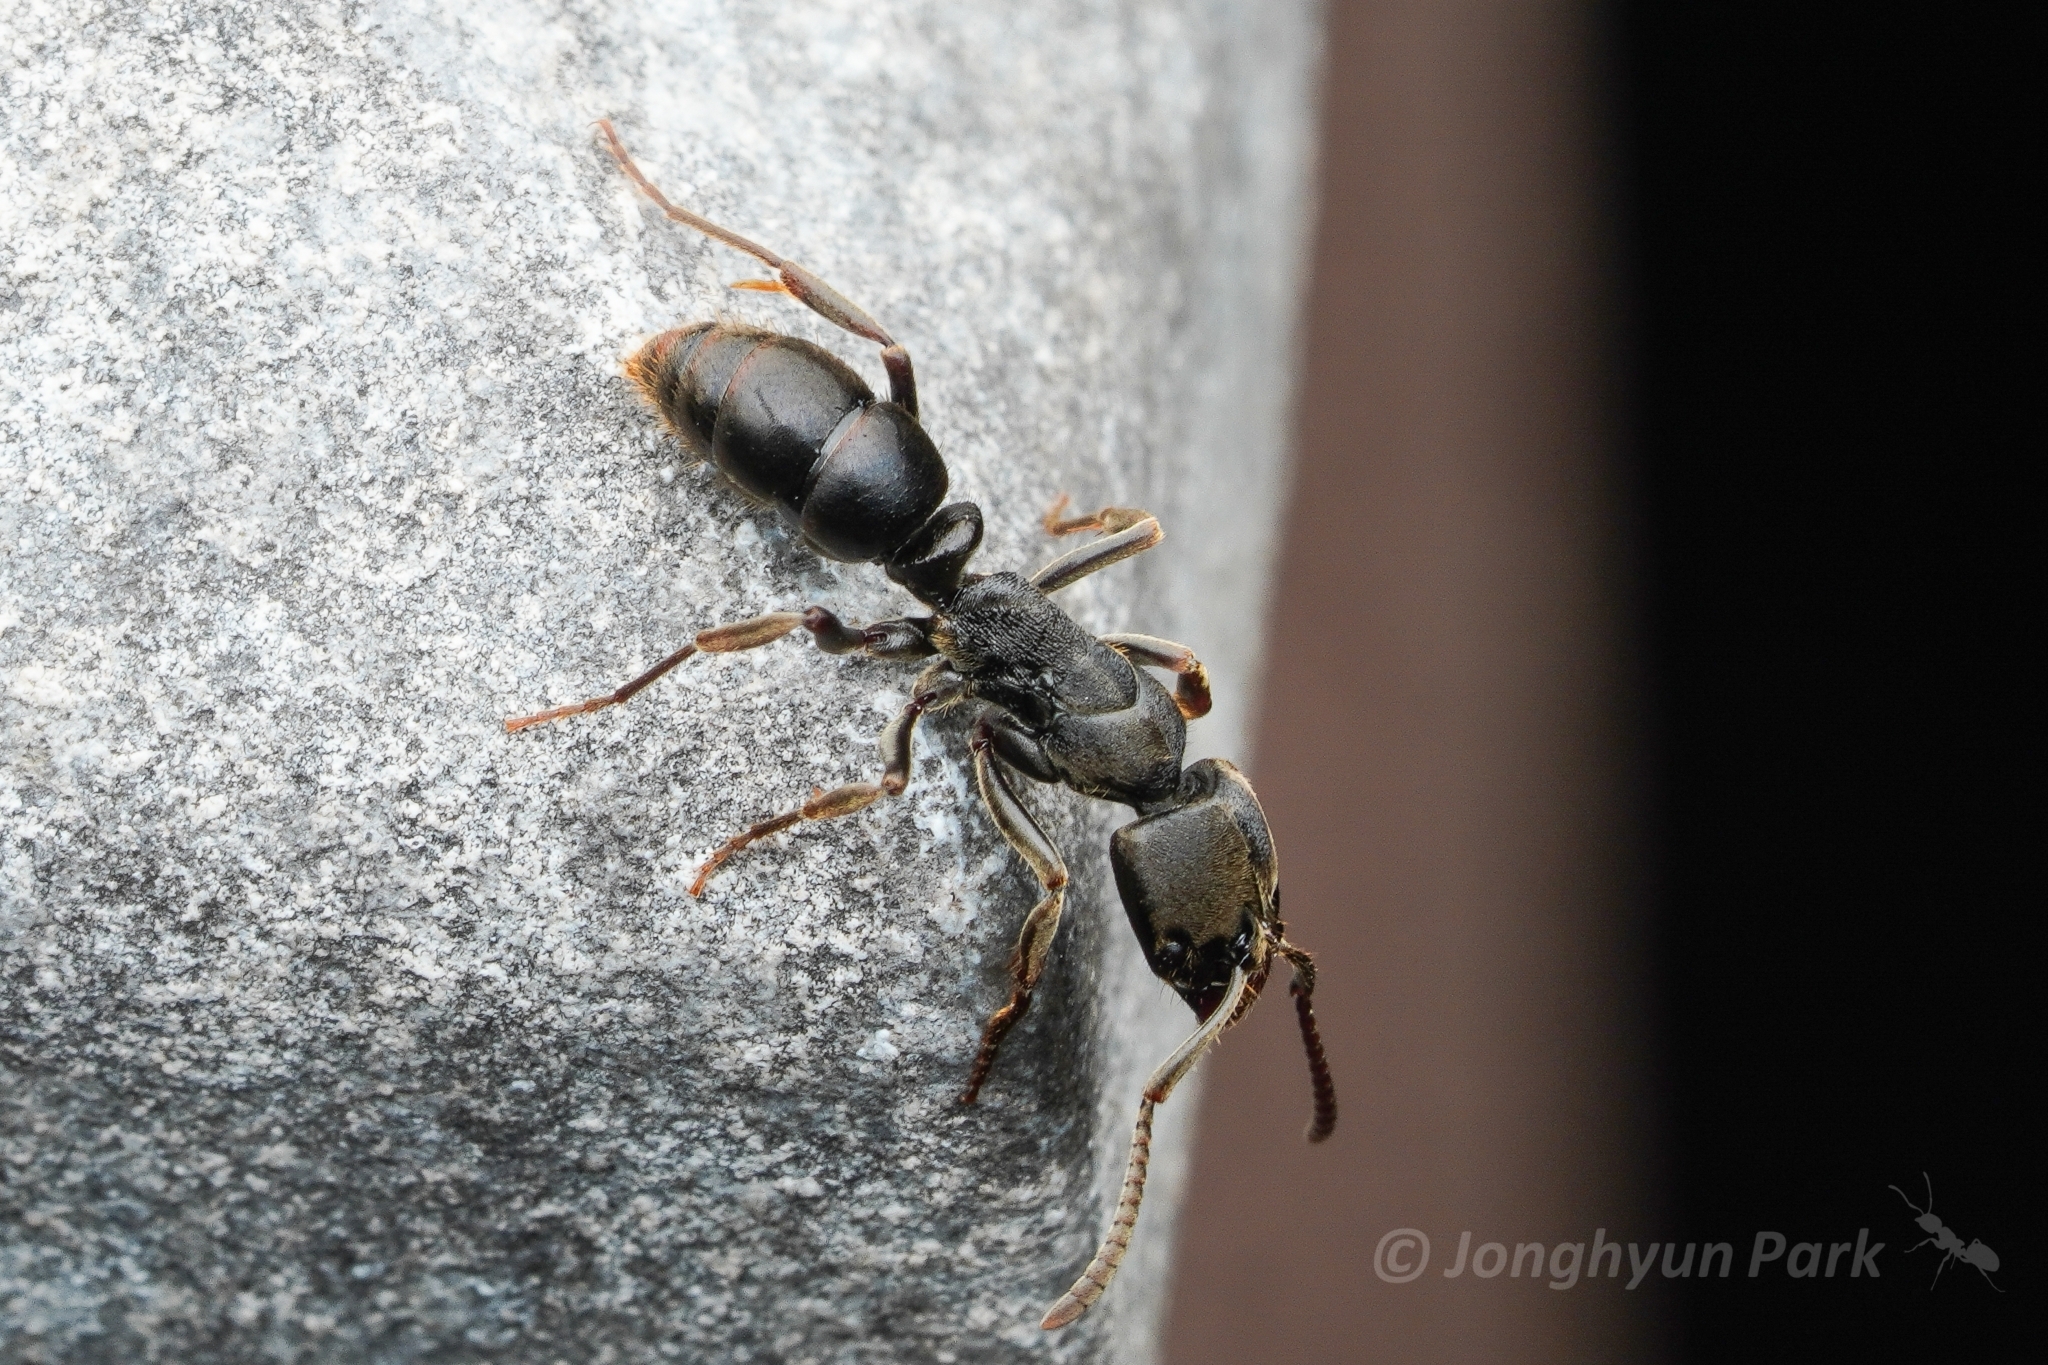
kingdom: Animalia
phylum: Arthropoda
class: Insecta
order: Hymenoptera
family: Formicidae
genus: Ectomomyrmex
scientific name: Ectomomyrmex javanus
